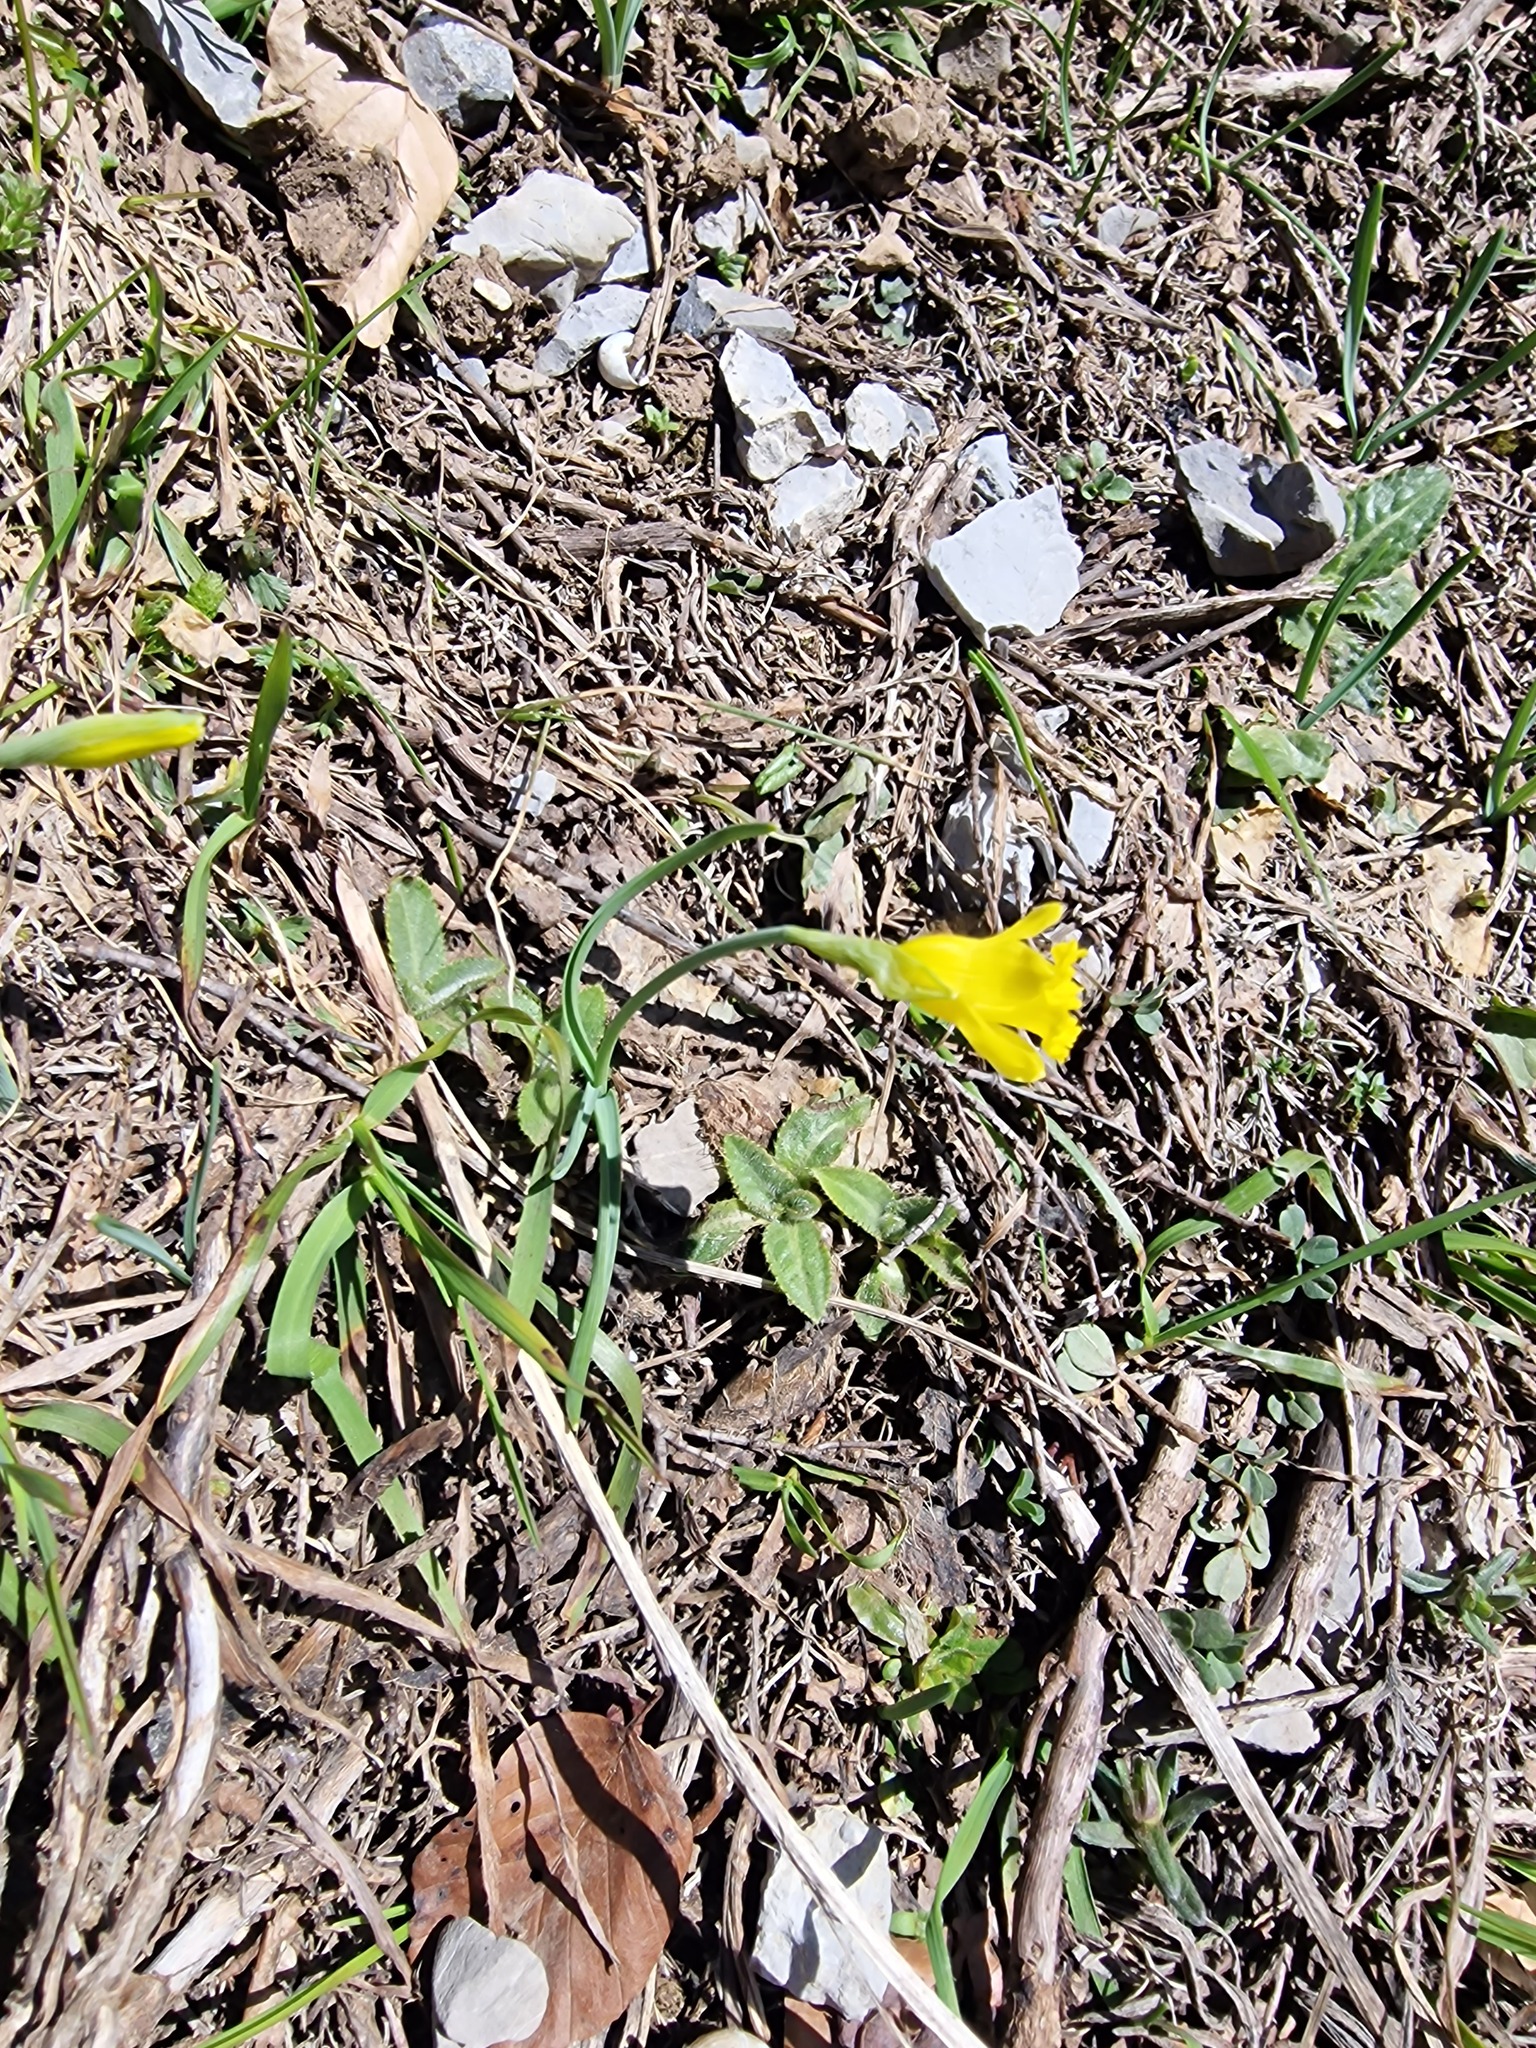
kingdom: Plantae
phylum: Tracheophyta
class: Liliopsida
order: Asparagales
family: Amaryllidaceae
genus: Narcissus
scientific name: Narcissus minor
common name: Lesser daffodil
